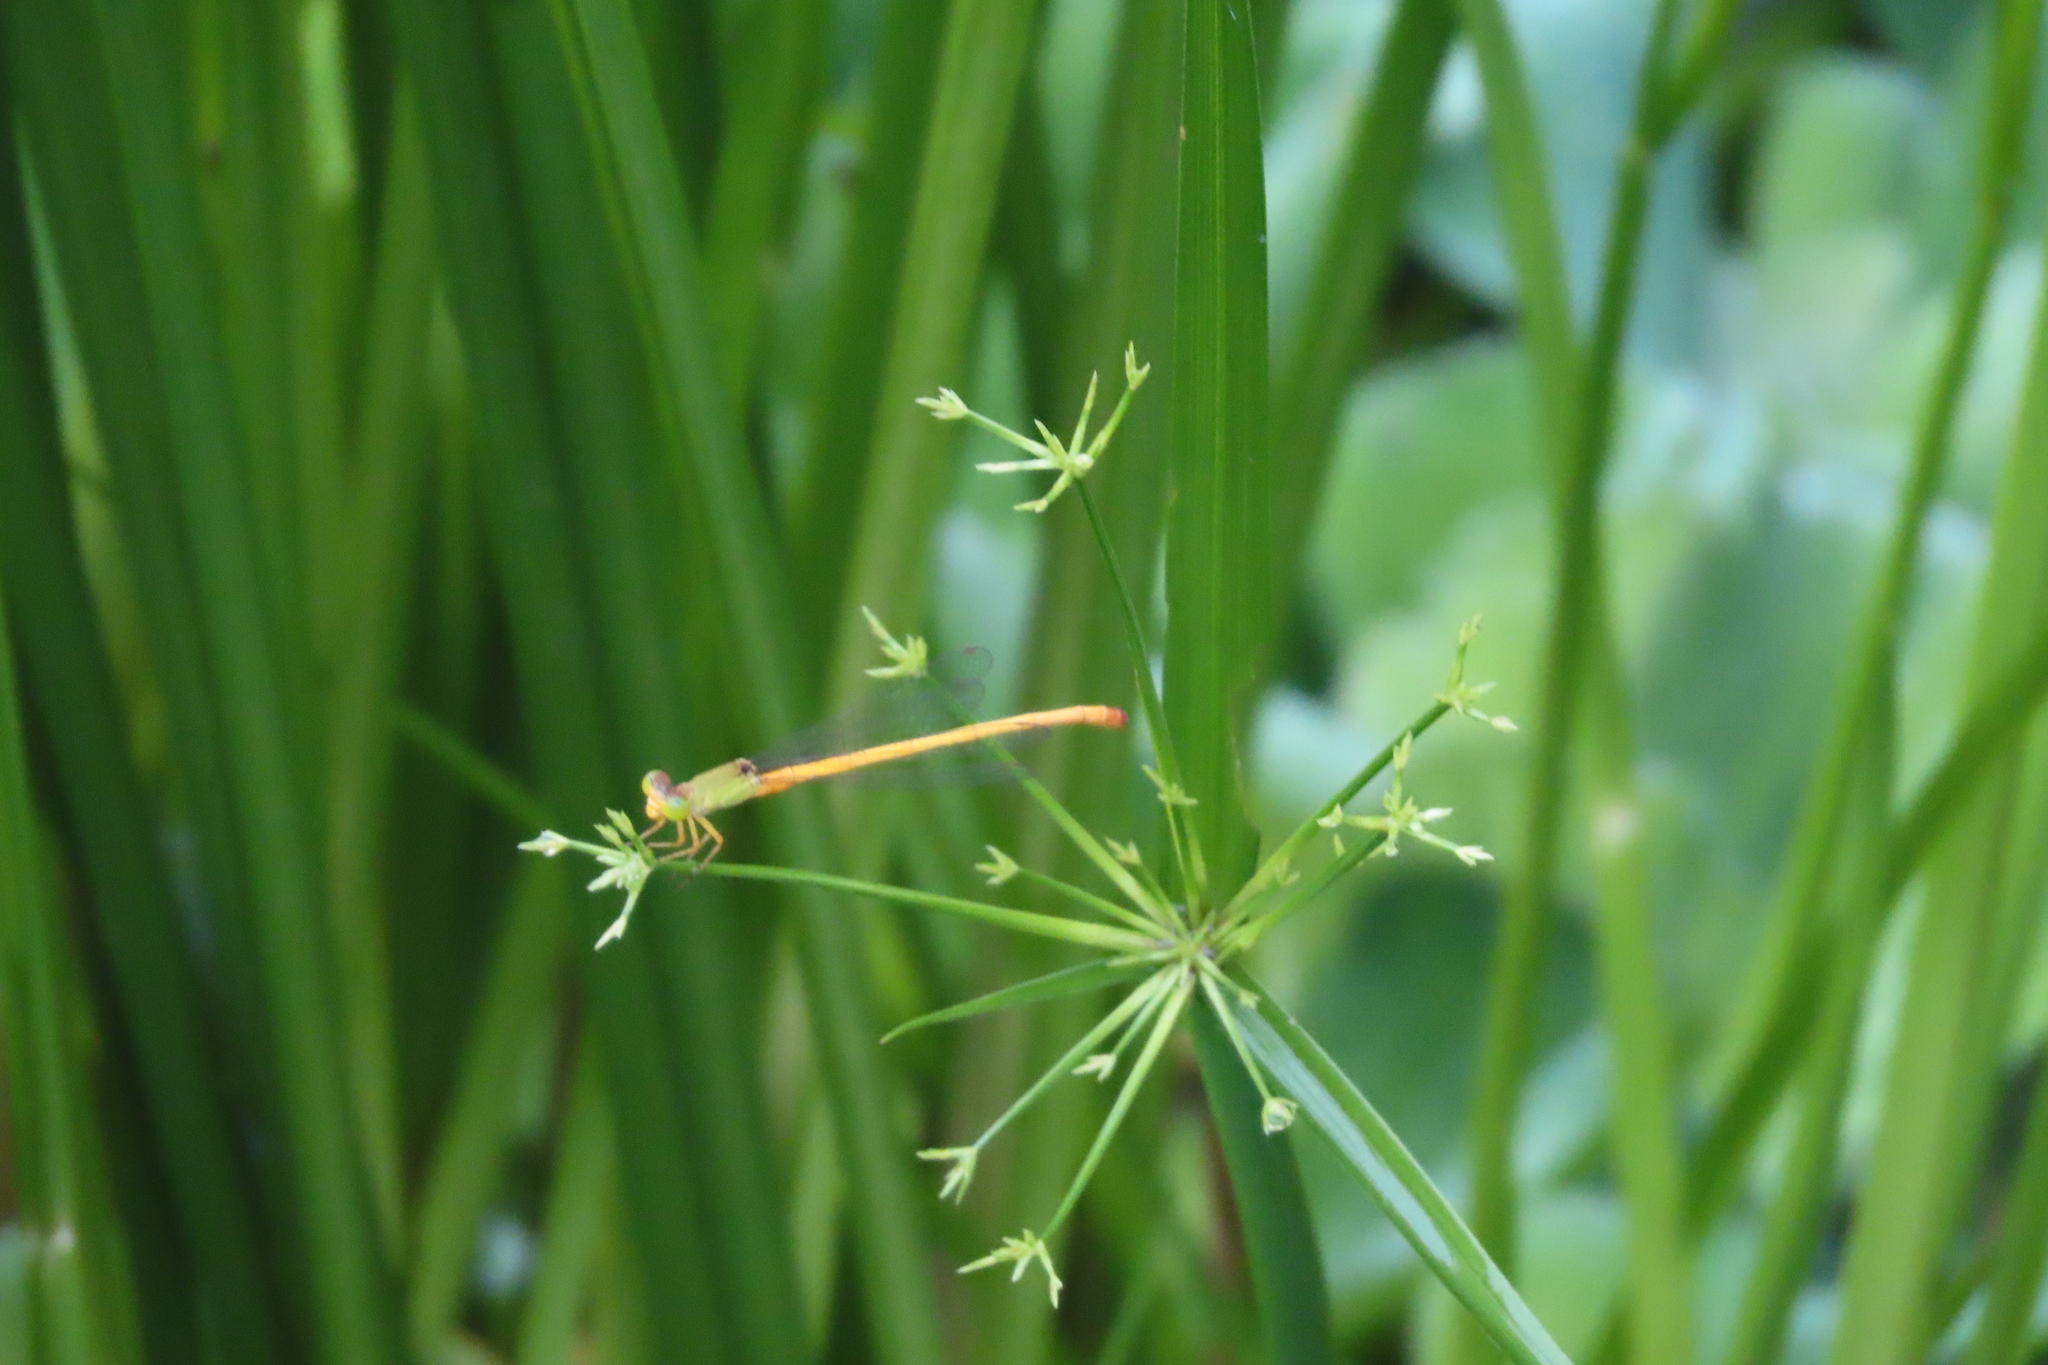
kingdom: Animalia
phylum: Arthropoda
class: Insecta
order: Odonata
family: Coenagrionidae
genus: Ceriagrion
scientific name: Ceriagrion coromandelianum
